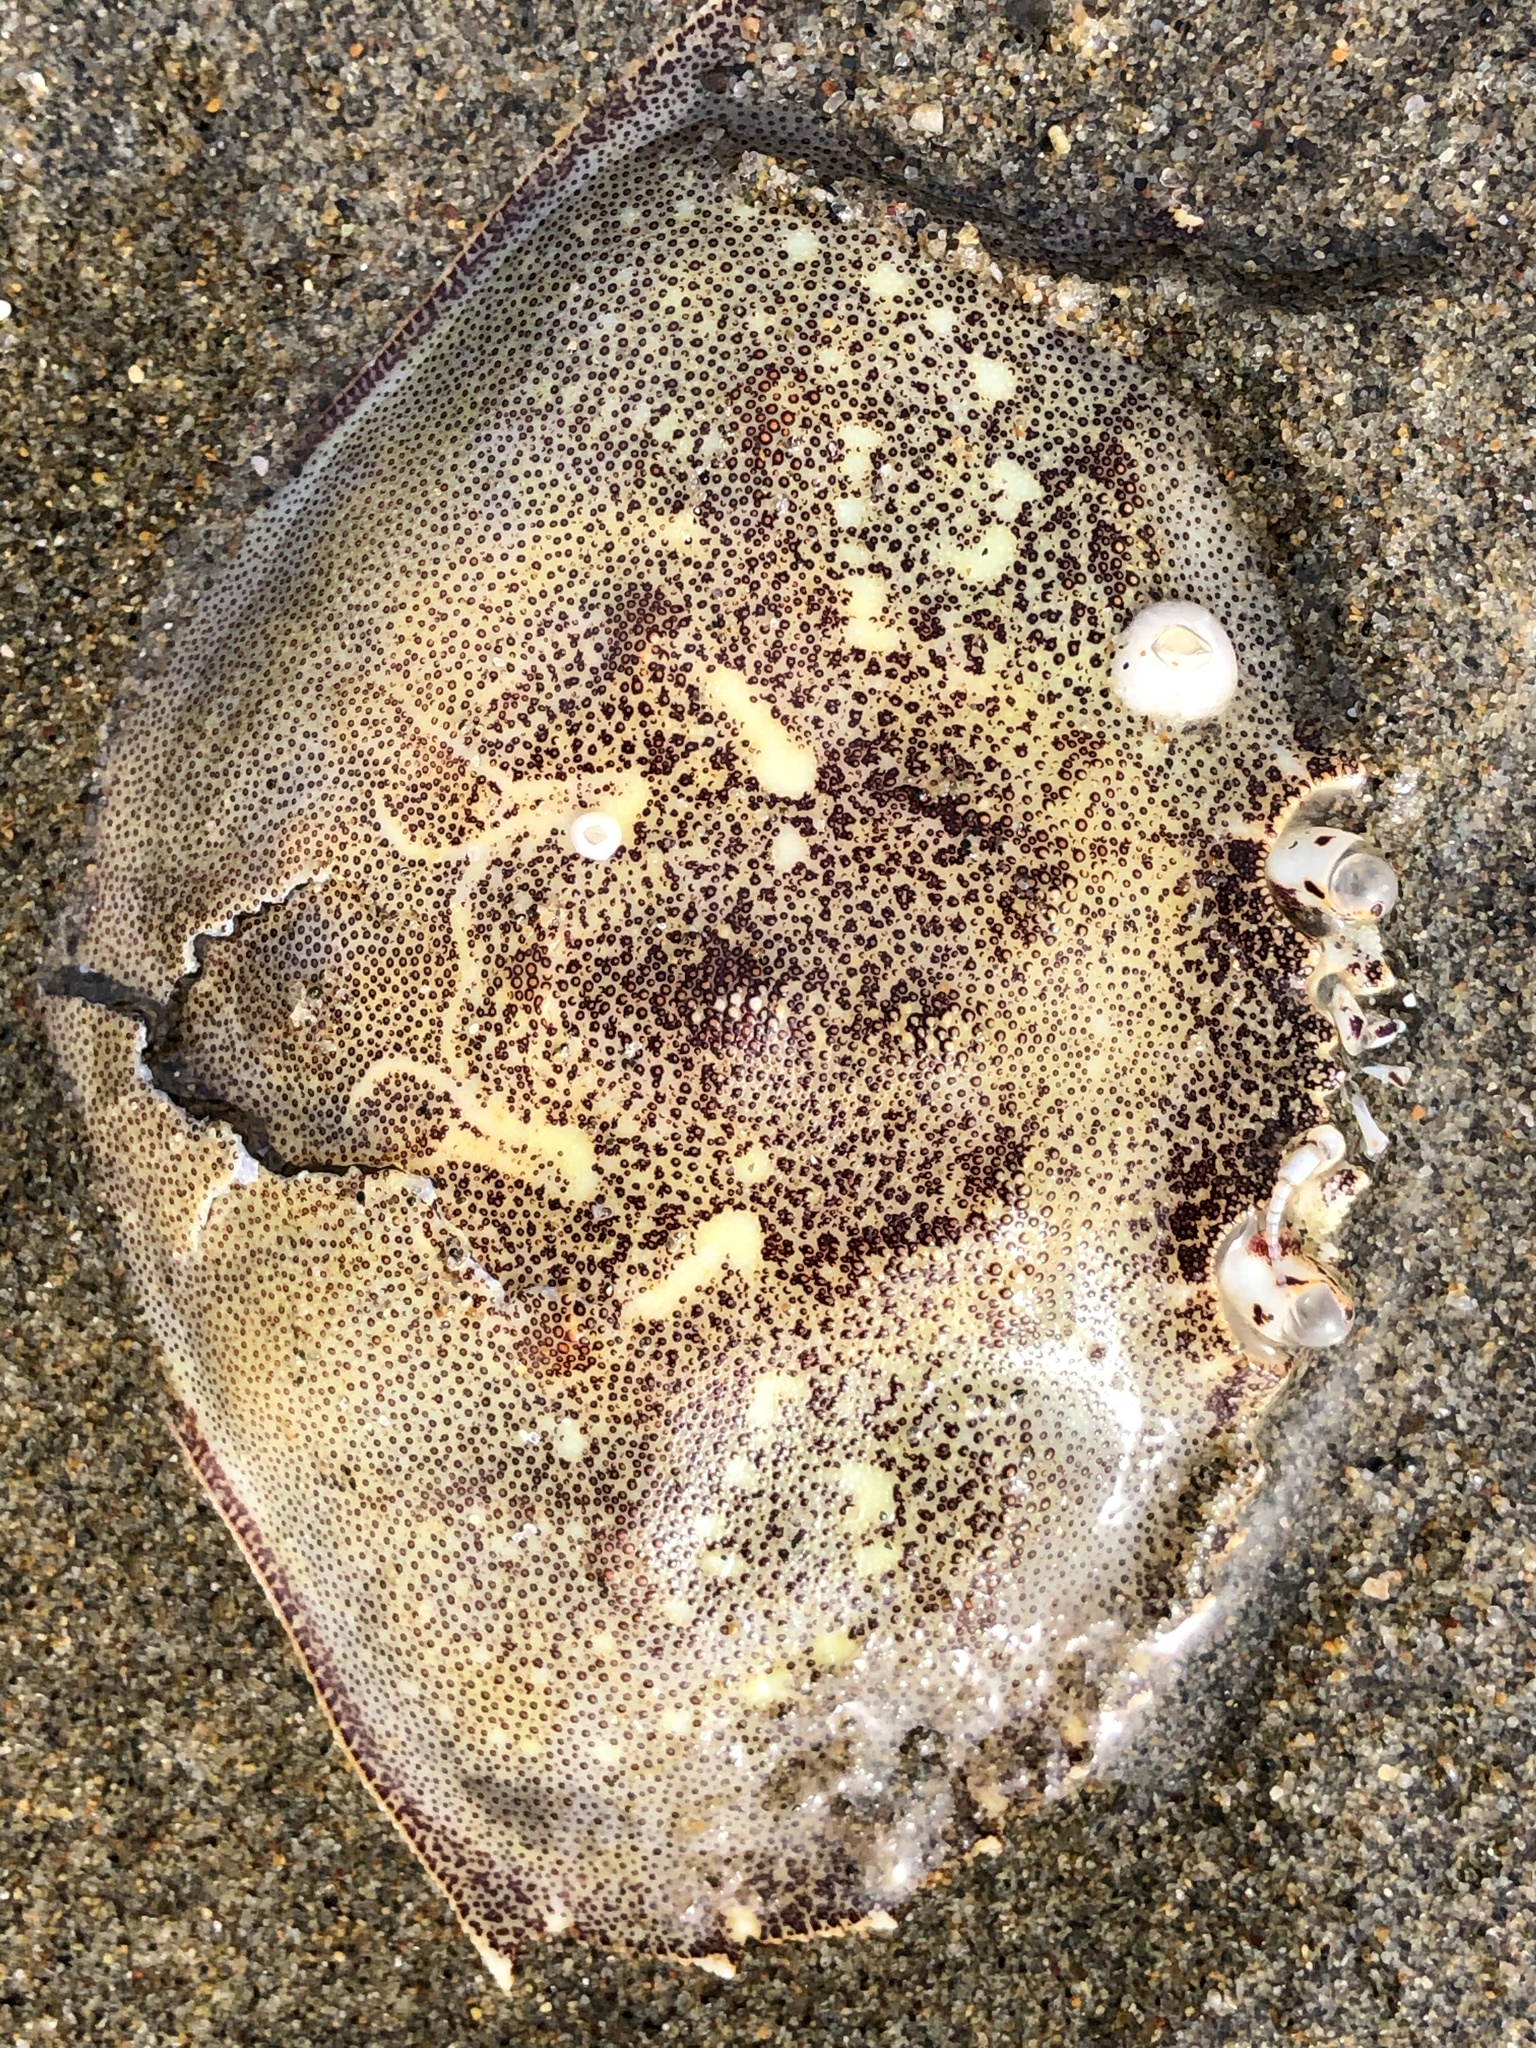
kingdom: Animalia
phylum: Arthropoda
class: Malacostraca
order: Decapoda
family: Cancridae
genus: Metacarcinus
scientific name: Metacarcinus magister
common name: Californian crab
